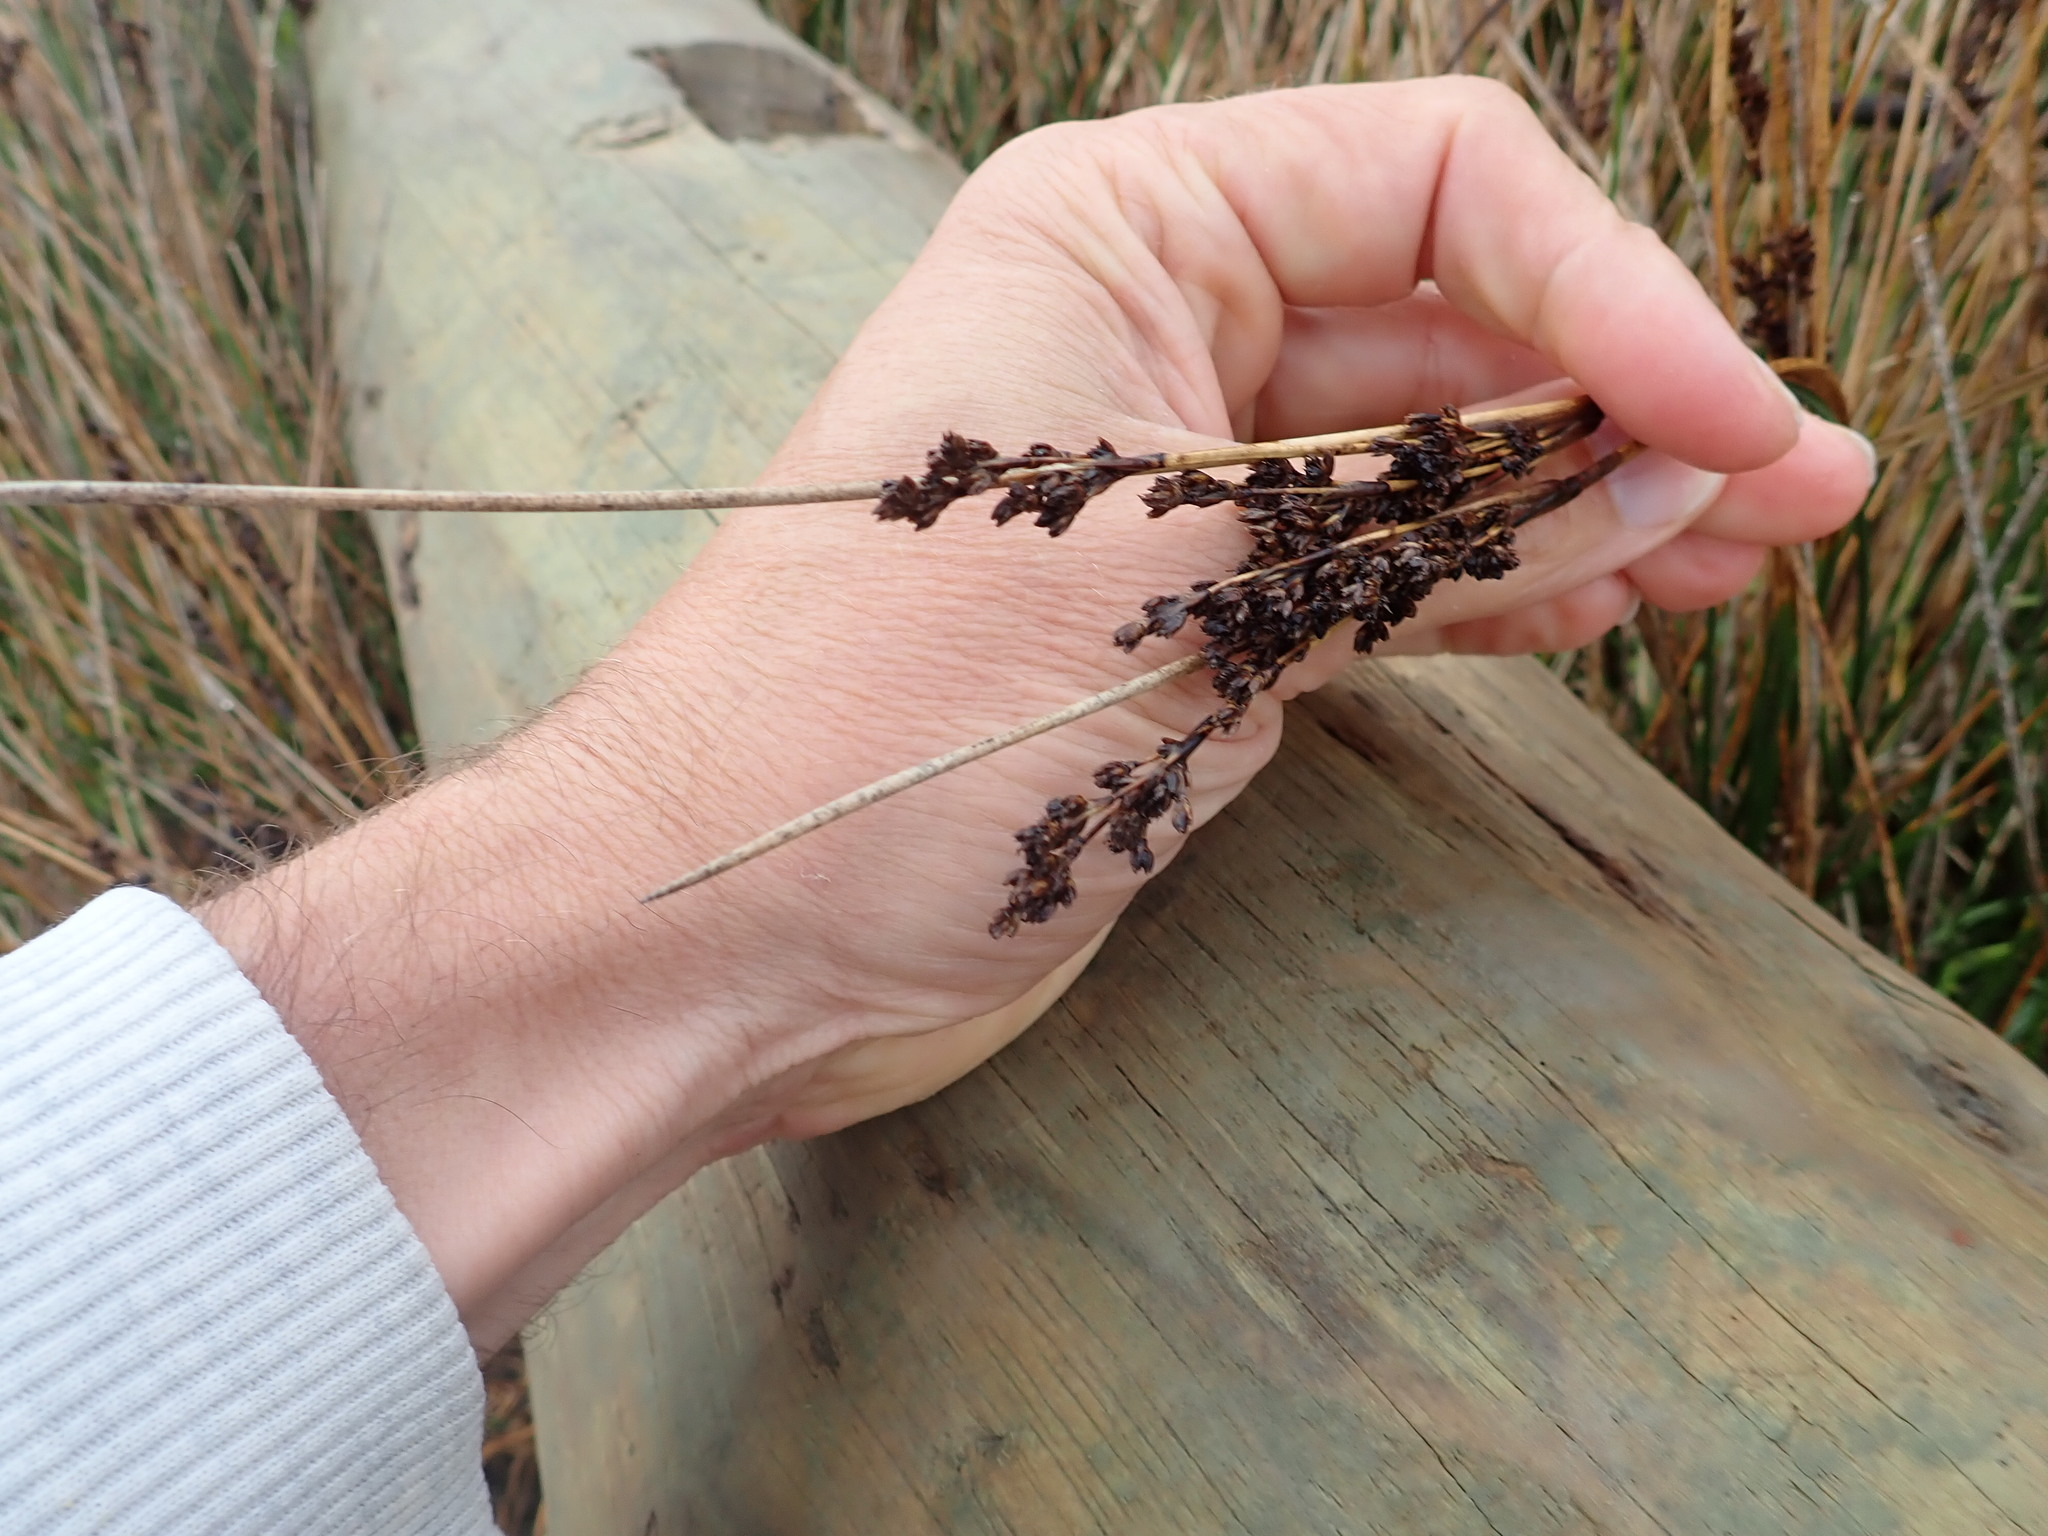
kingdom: Plantae
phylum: Tracheophyta
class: Liliopsida
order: Poales
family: Juncaceae
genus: Juncus
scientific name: Juncus kraussii
